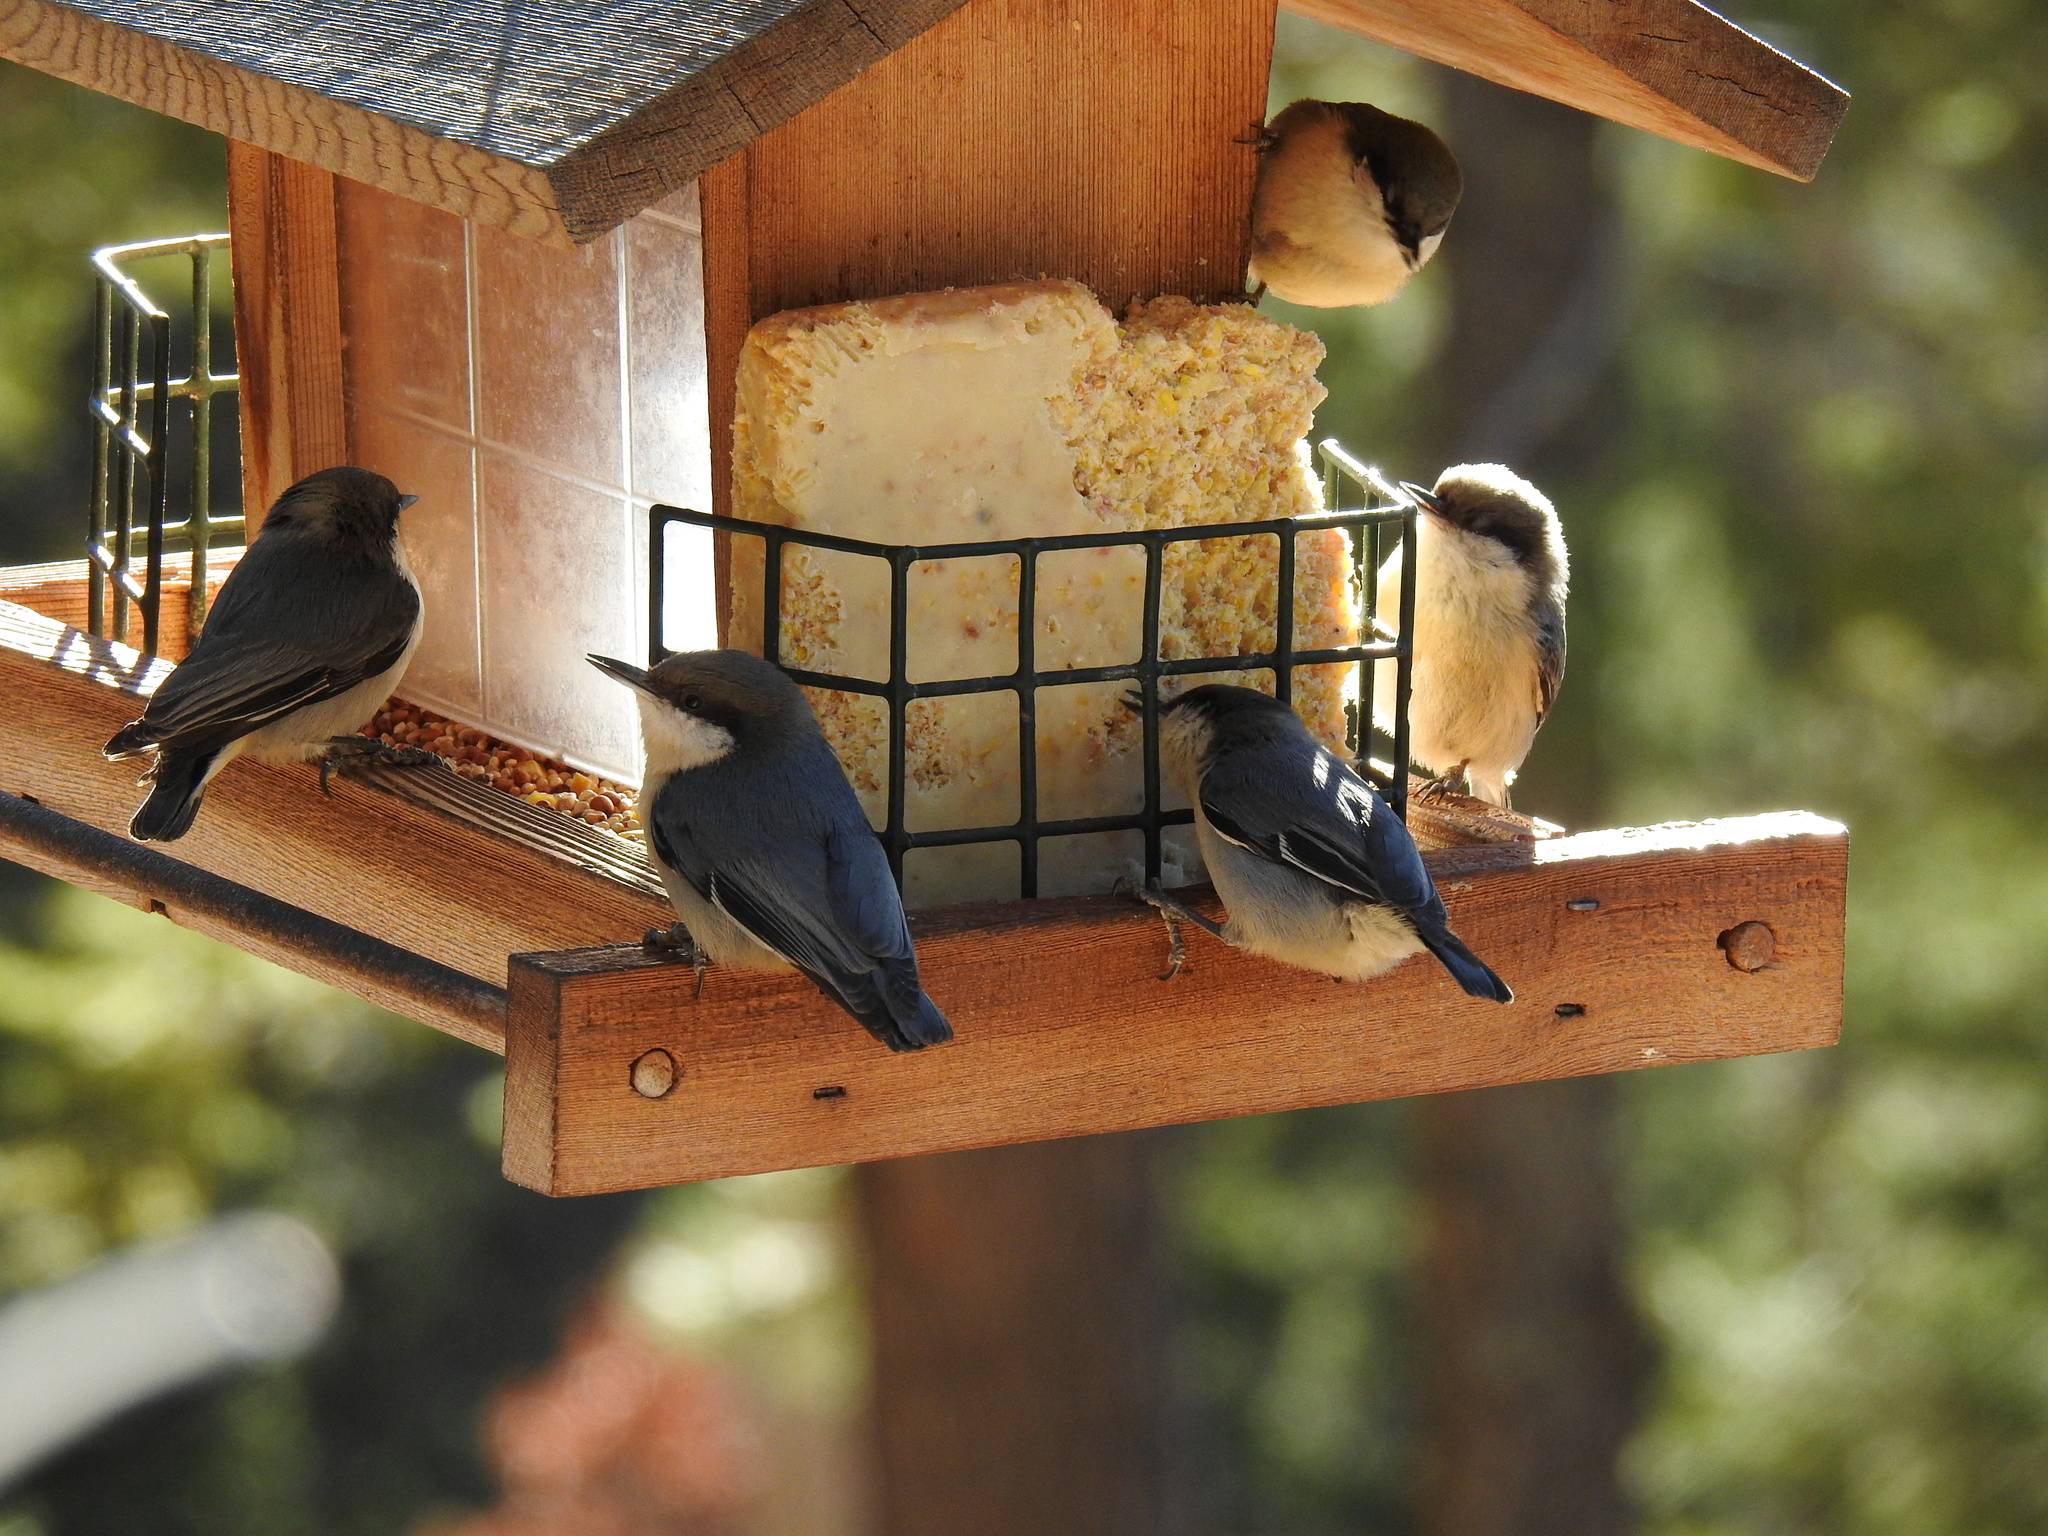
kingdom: Animalia
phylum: Chordata
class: Aves
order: Passeriformes
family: Sittidae
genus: Sitta
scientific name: Sitta pygmaea
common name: Pygmy nuthatch
